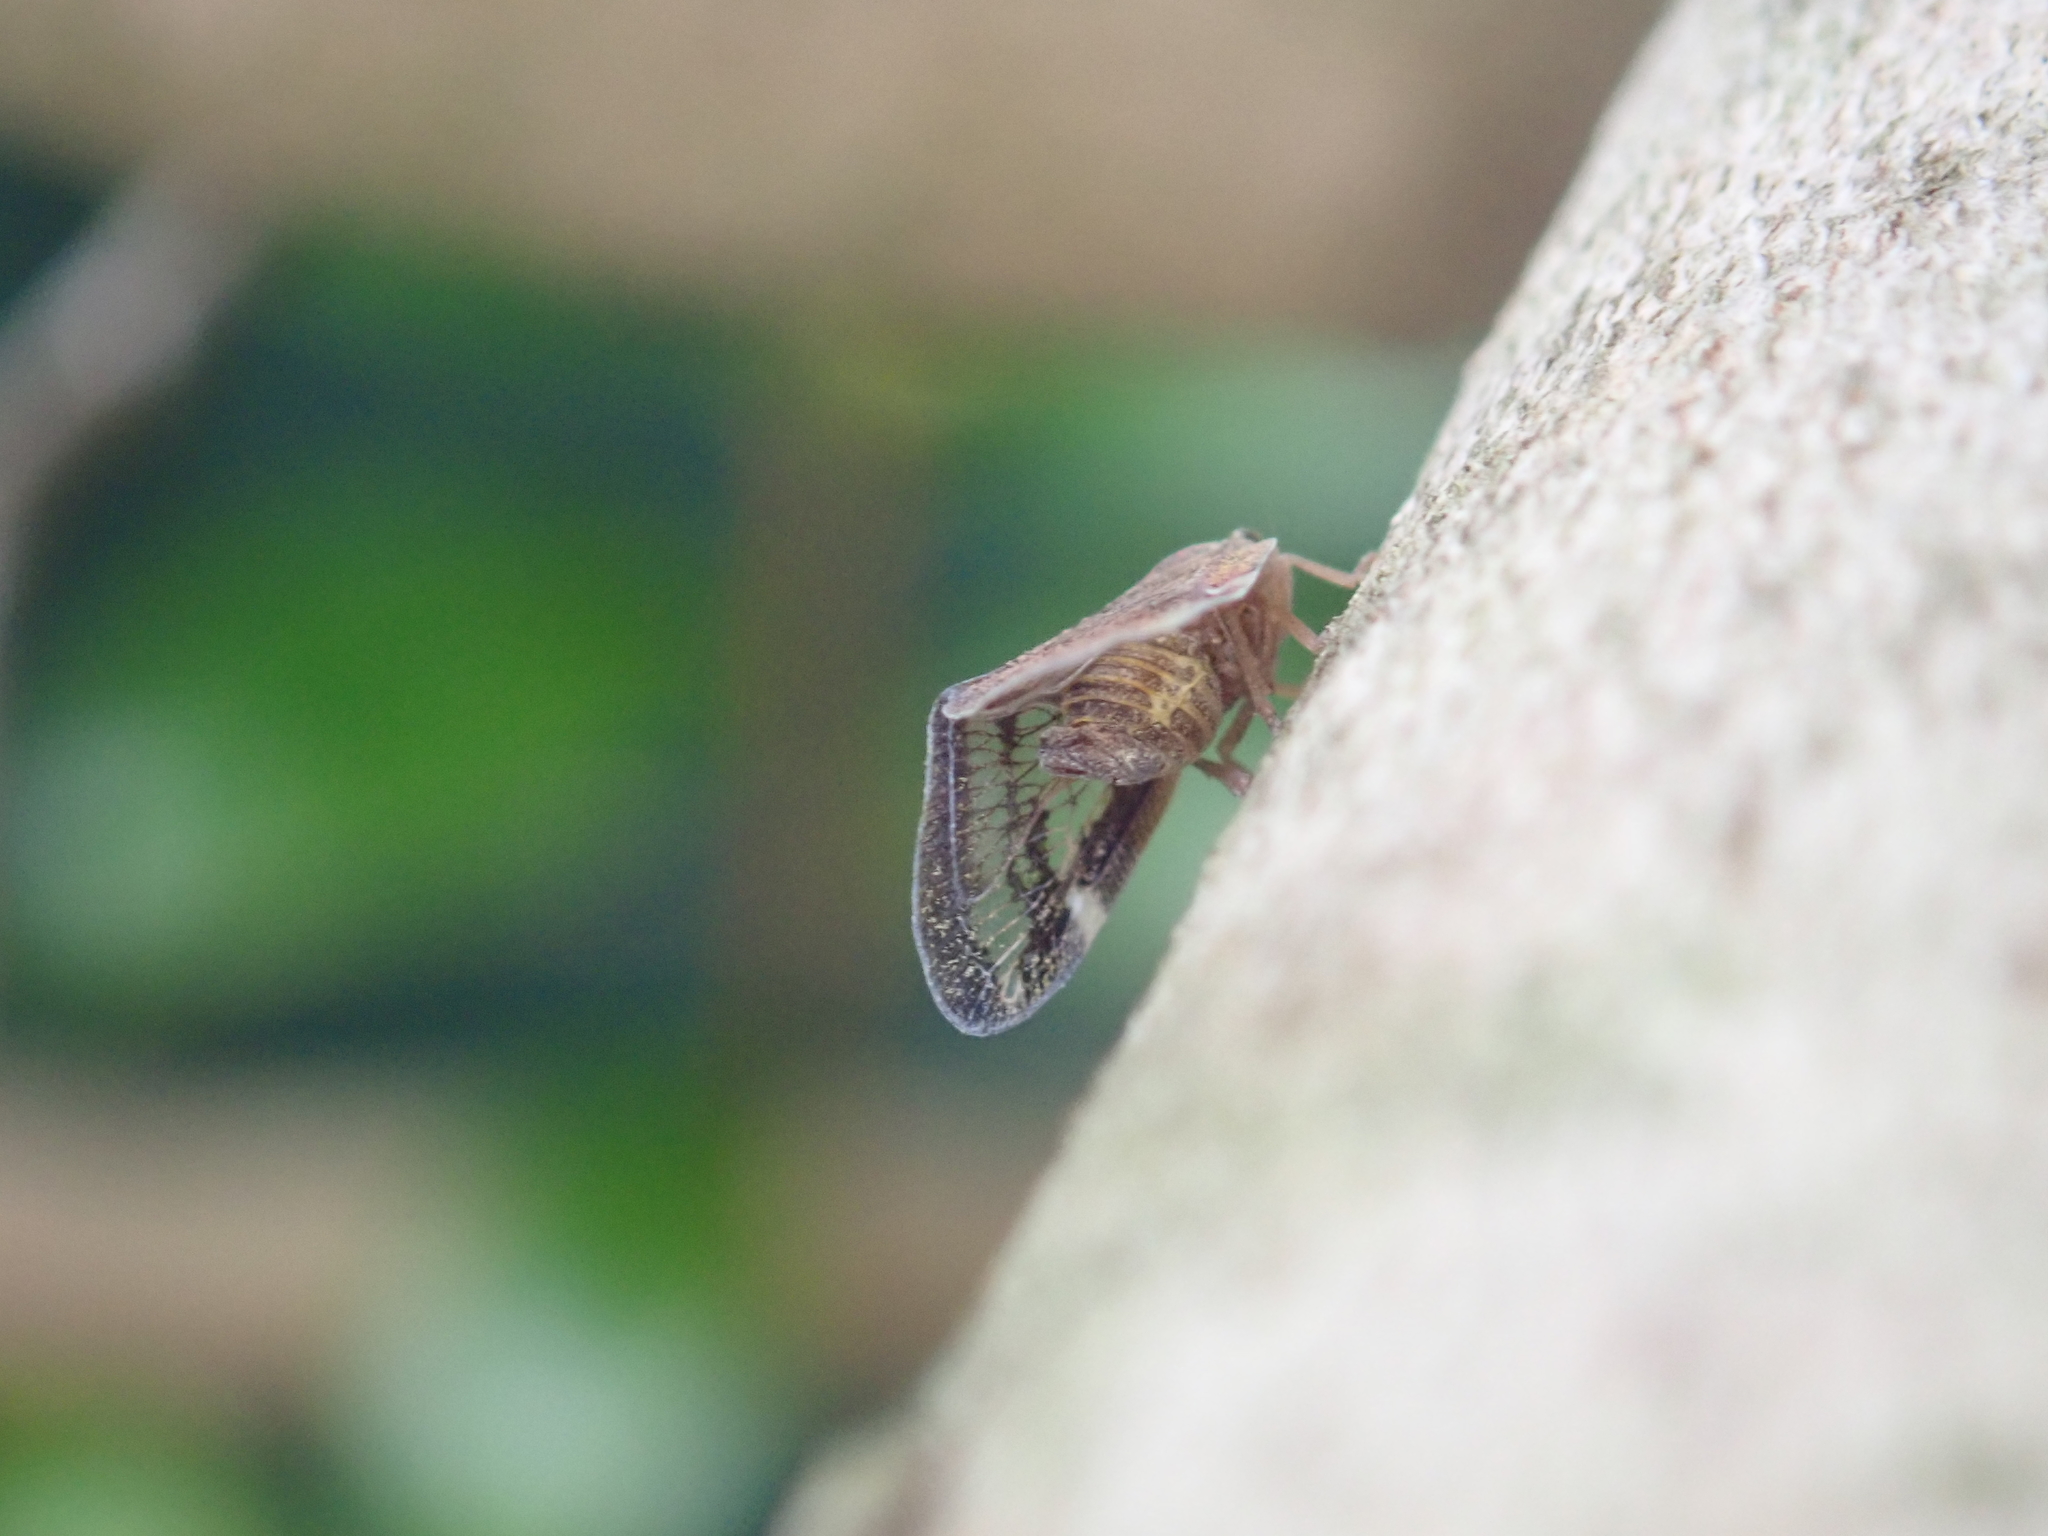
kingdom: Animalia
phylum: Arthropoda
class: Insecta
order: Hemiptera
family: Ricaniidae
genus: Scolypopa
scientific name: Scolypopa australis
